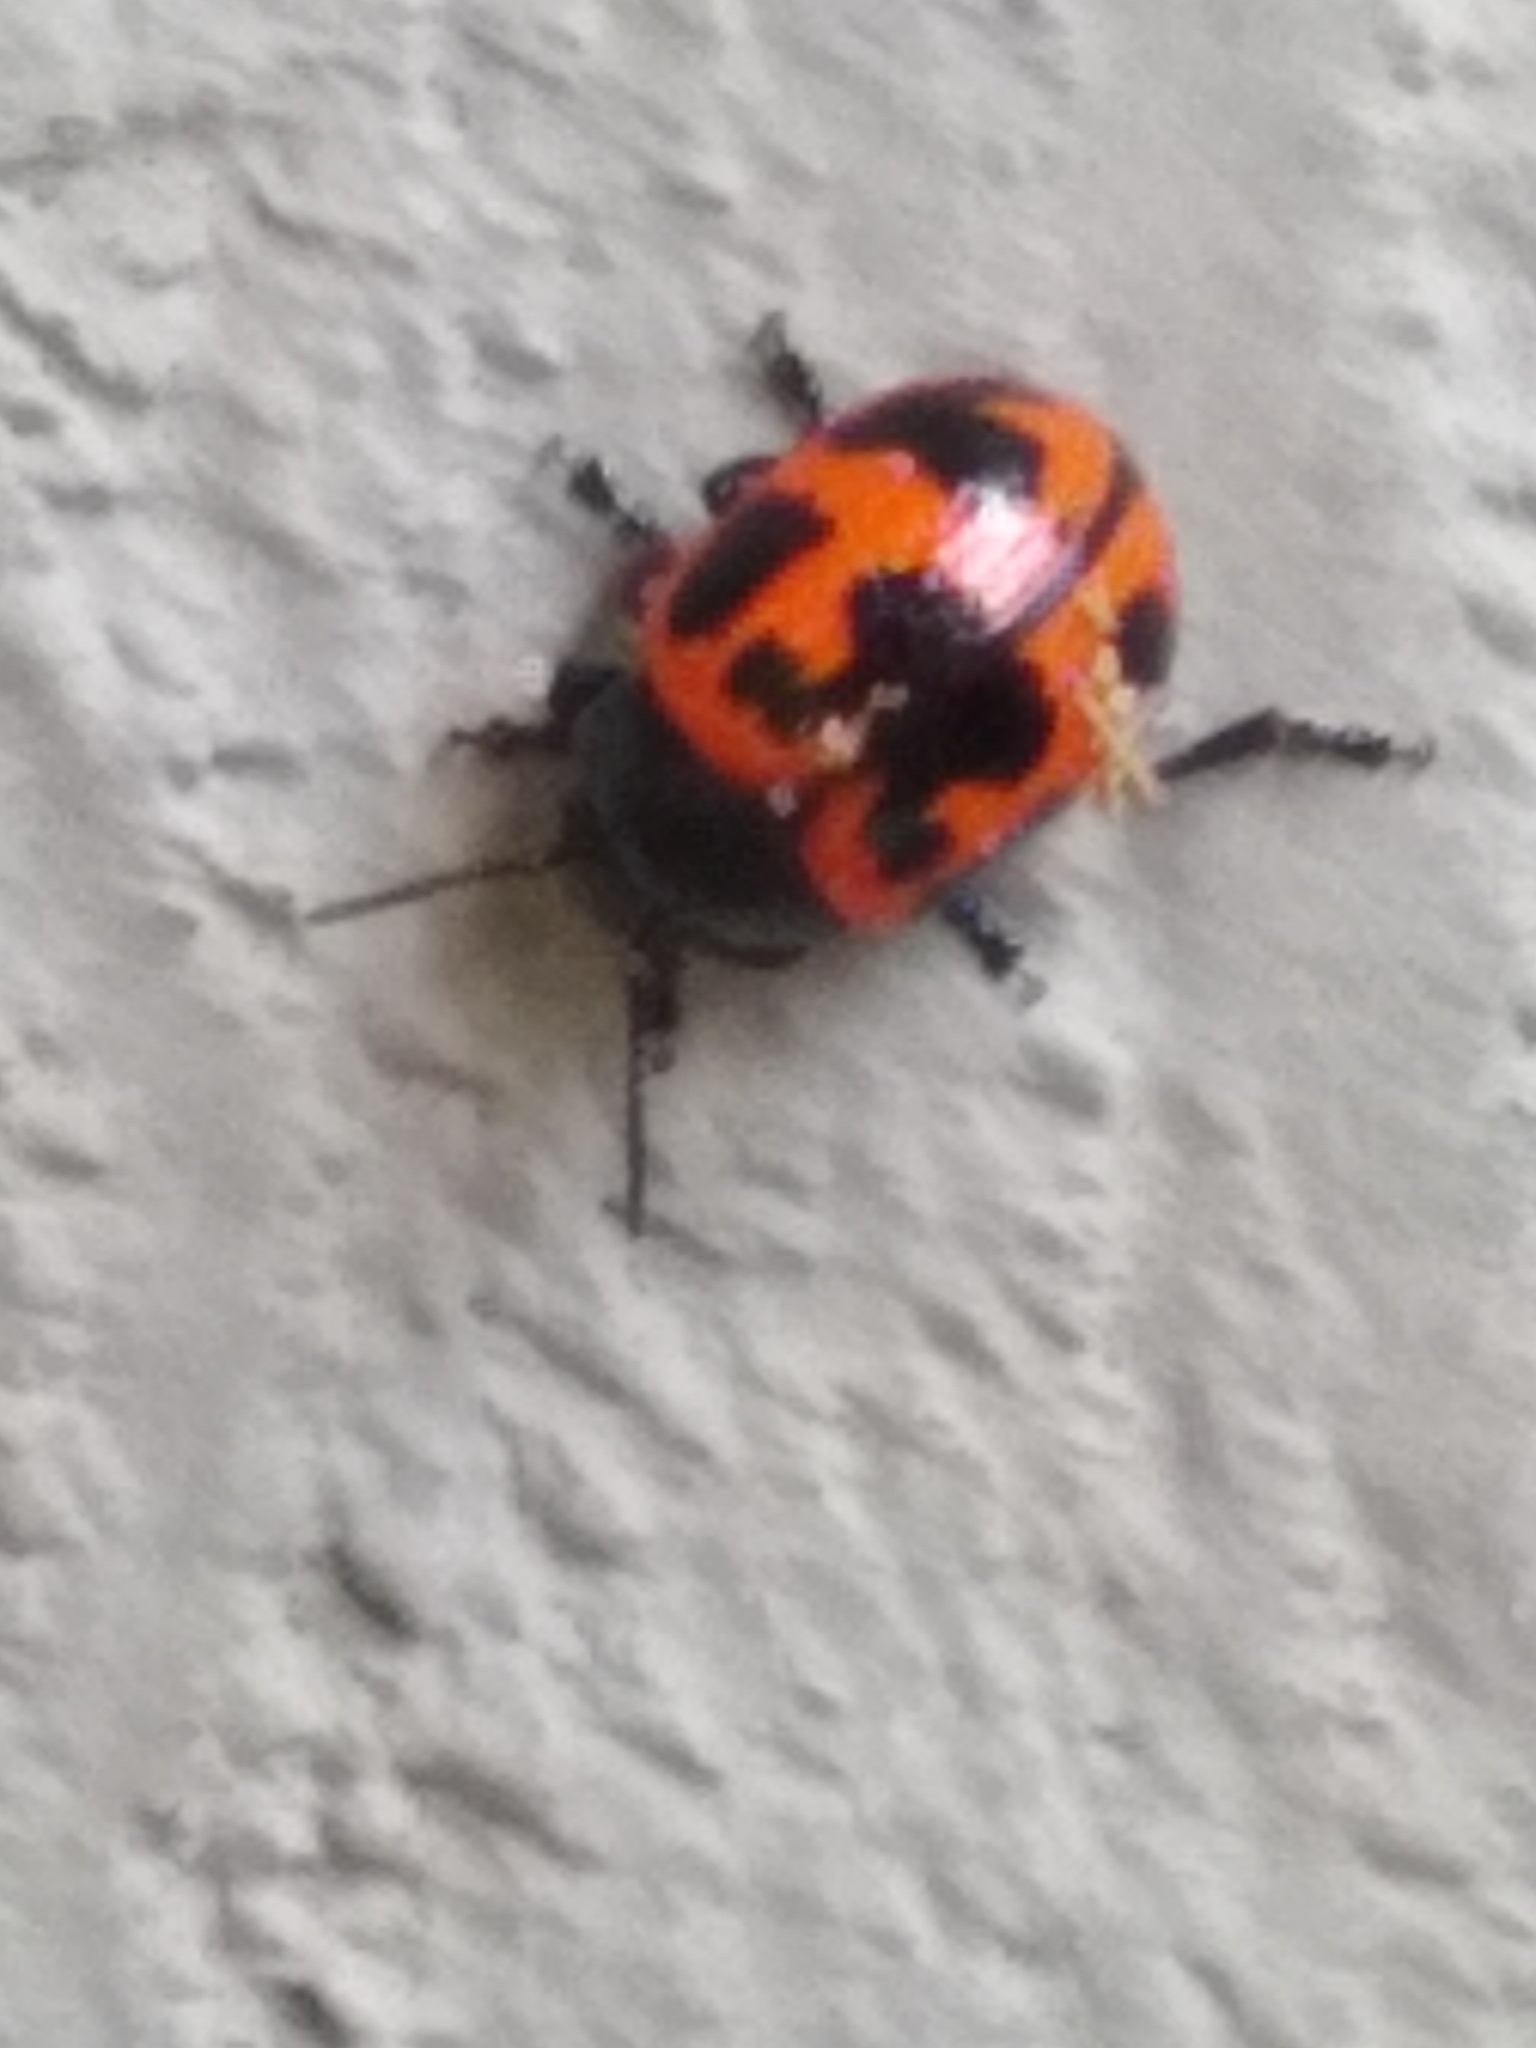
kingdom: Animalia
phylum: Arthropoda
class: Insecta
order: Coleoptera
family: Chrysomelidae
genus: Labidomera
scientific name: Labidomera clivicollis
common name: Swamp milkweed leaf beetle
